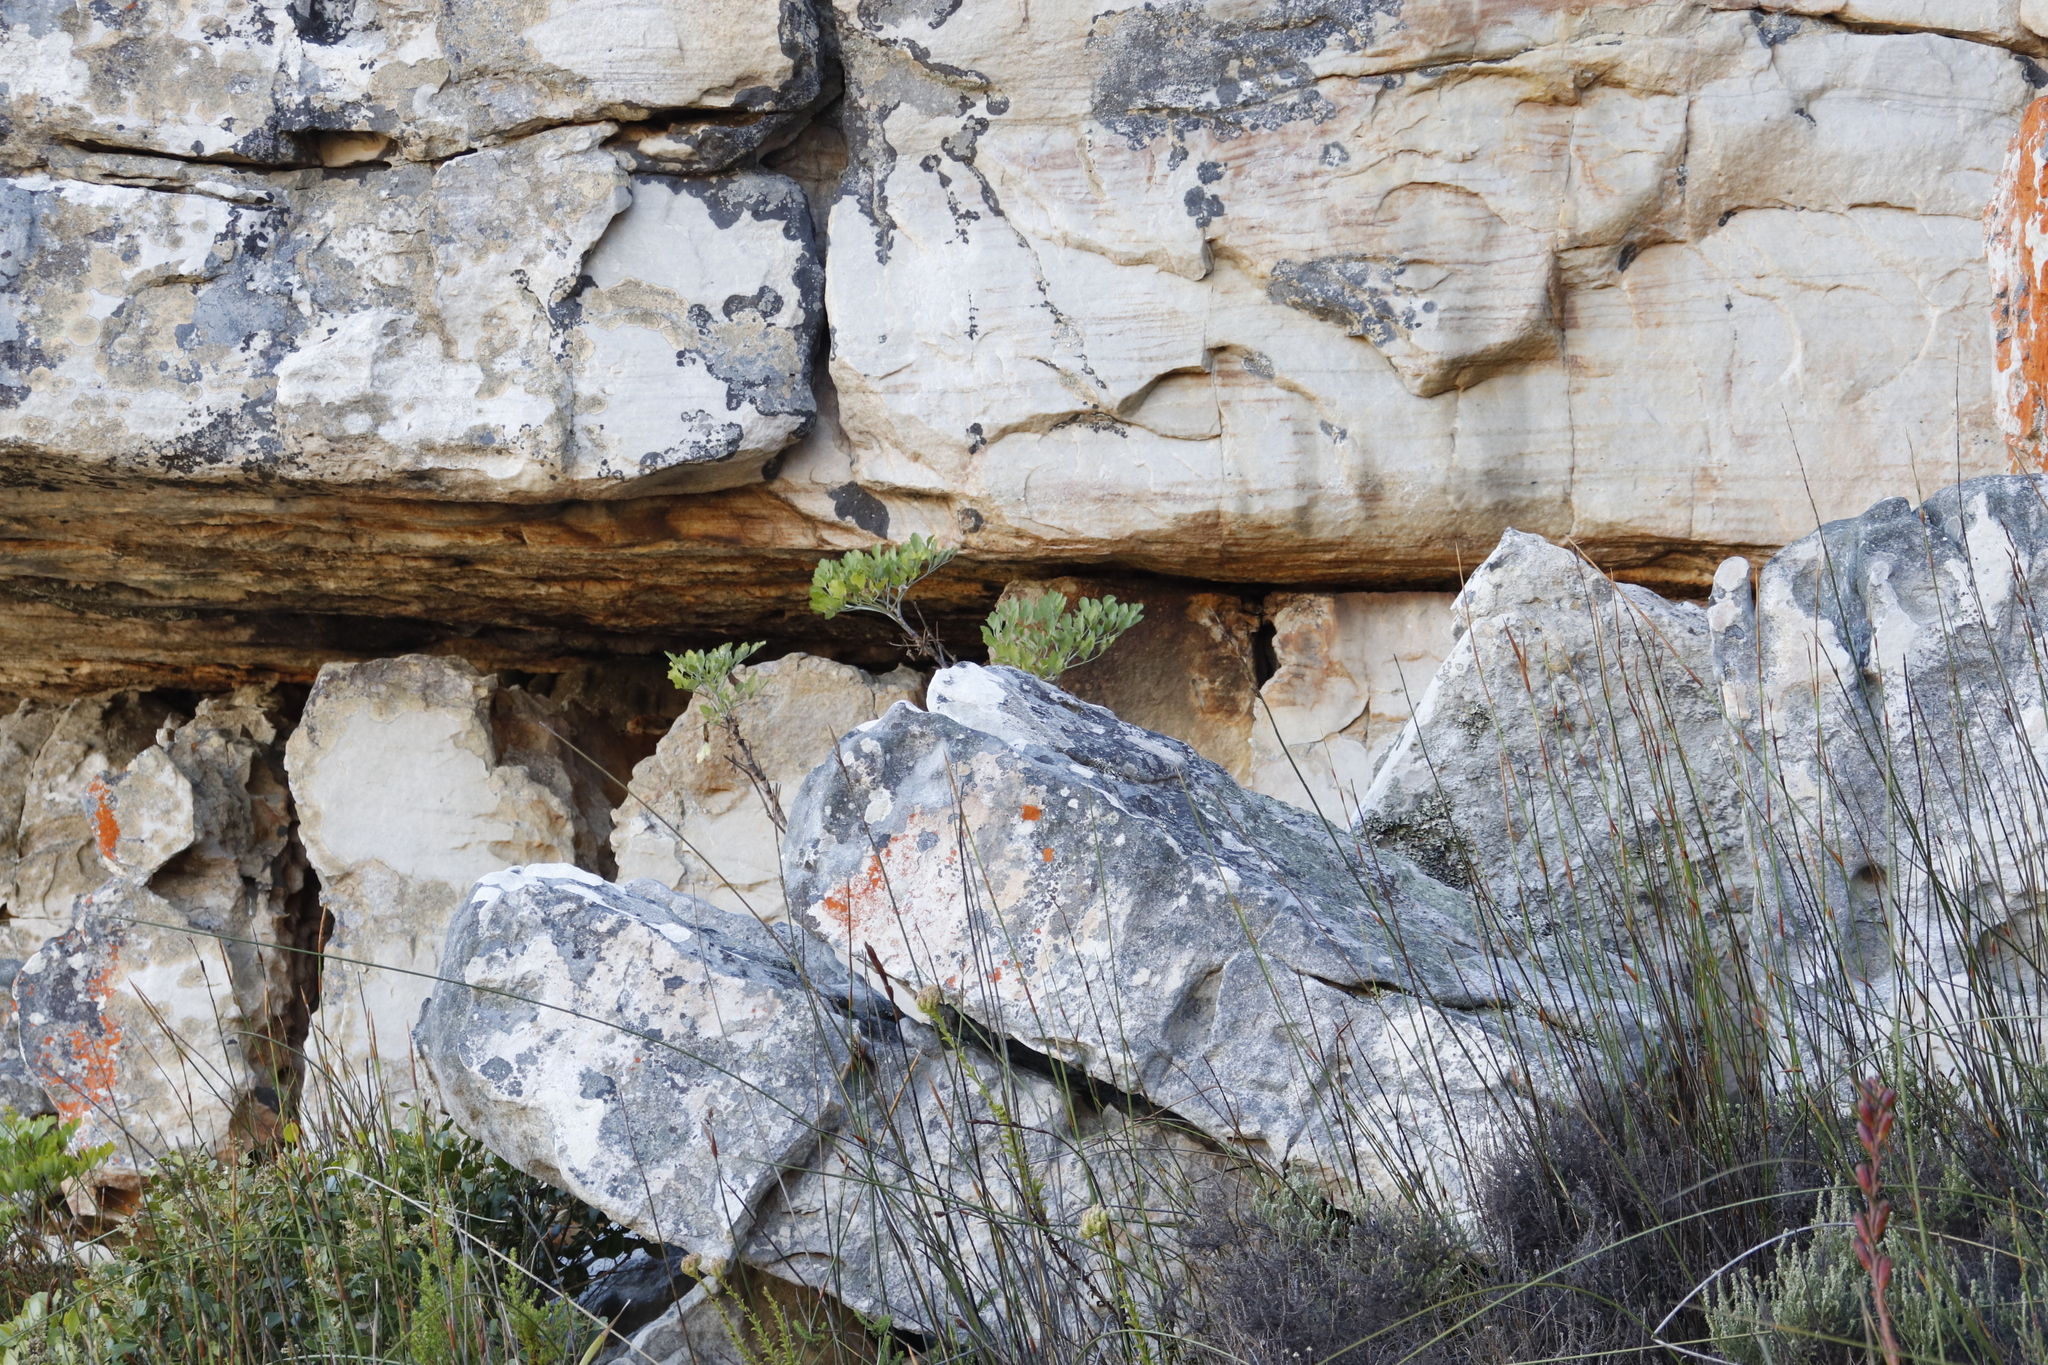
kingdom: Plantae
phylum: Tracheophyta
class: Magnoliopsida
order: Apiales
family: Apiaceae
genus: Notobubon
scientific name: Notobubon galbanum
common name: Blisterbush
